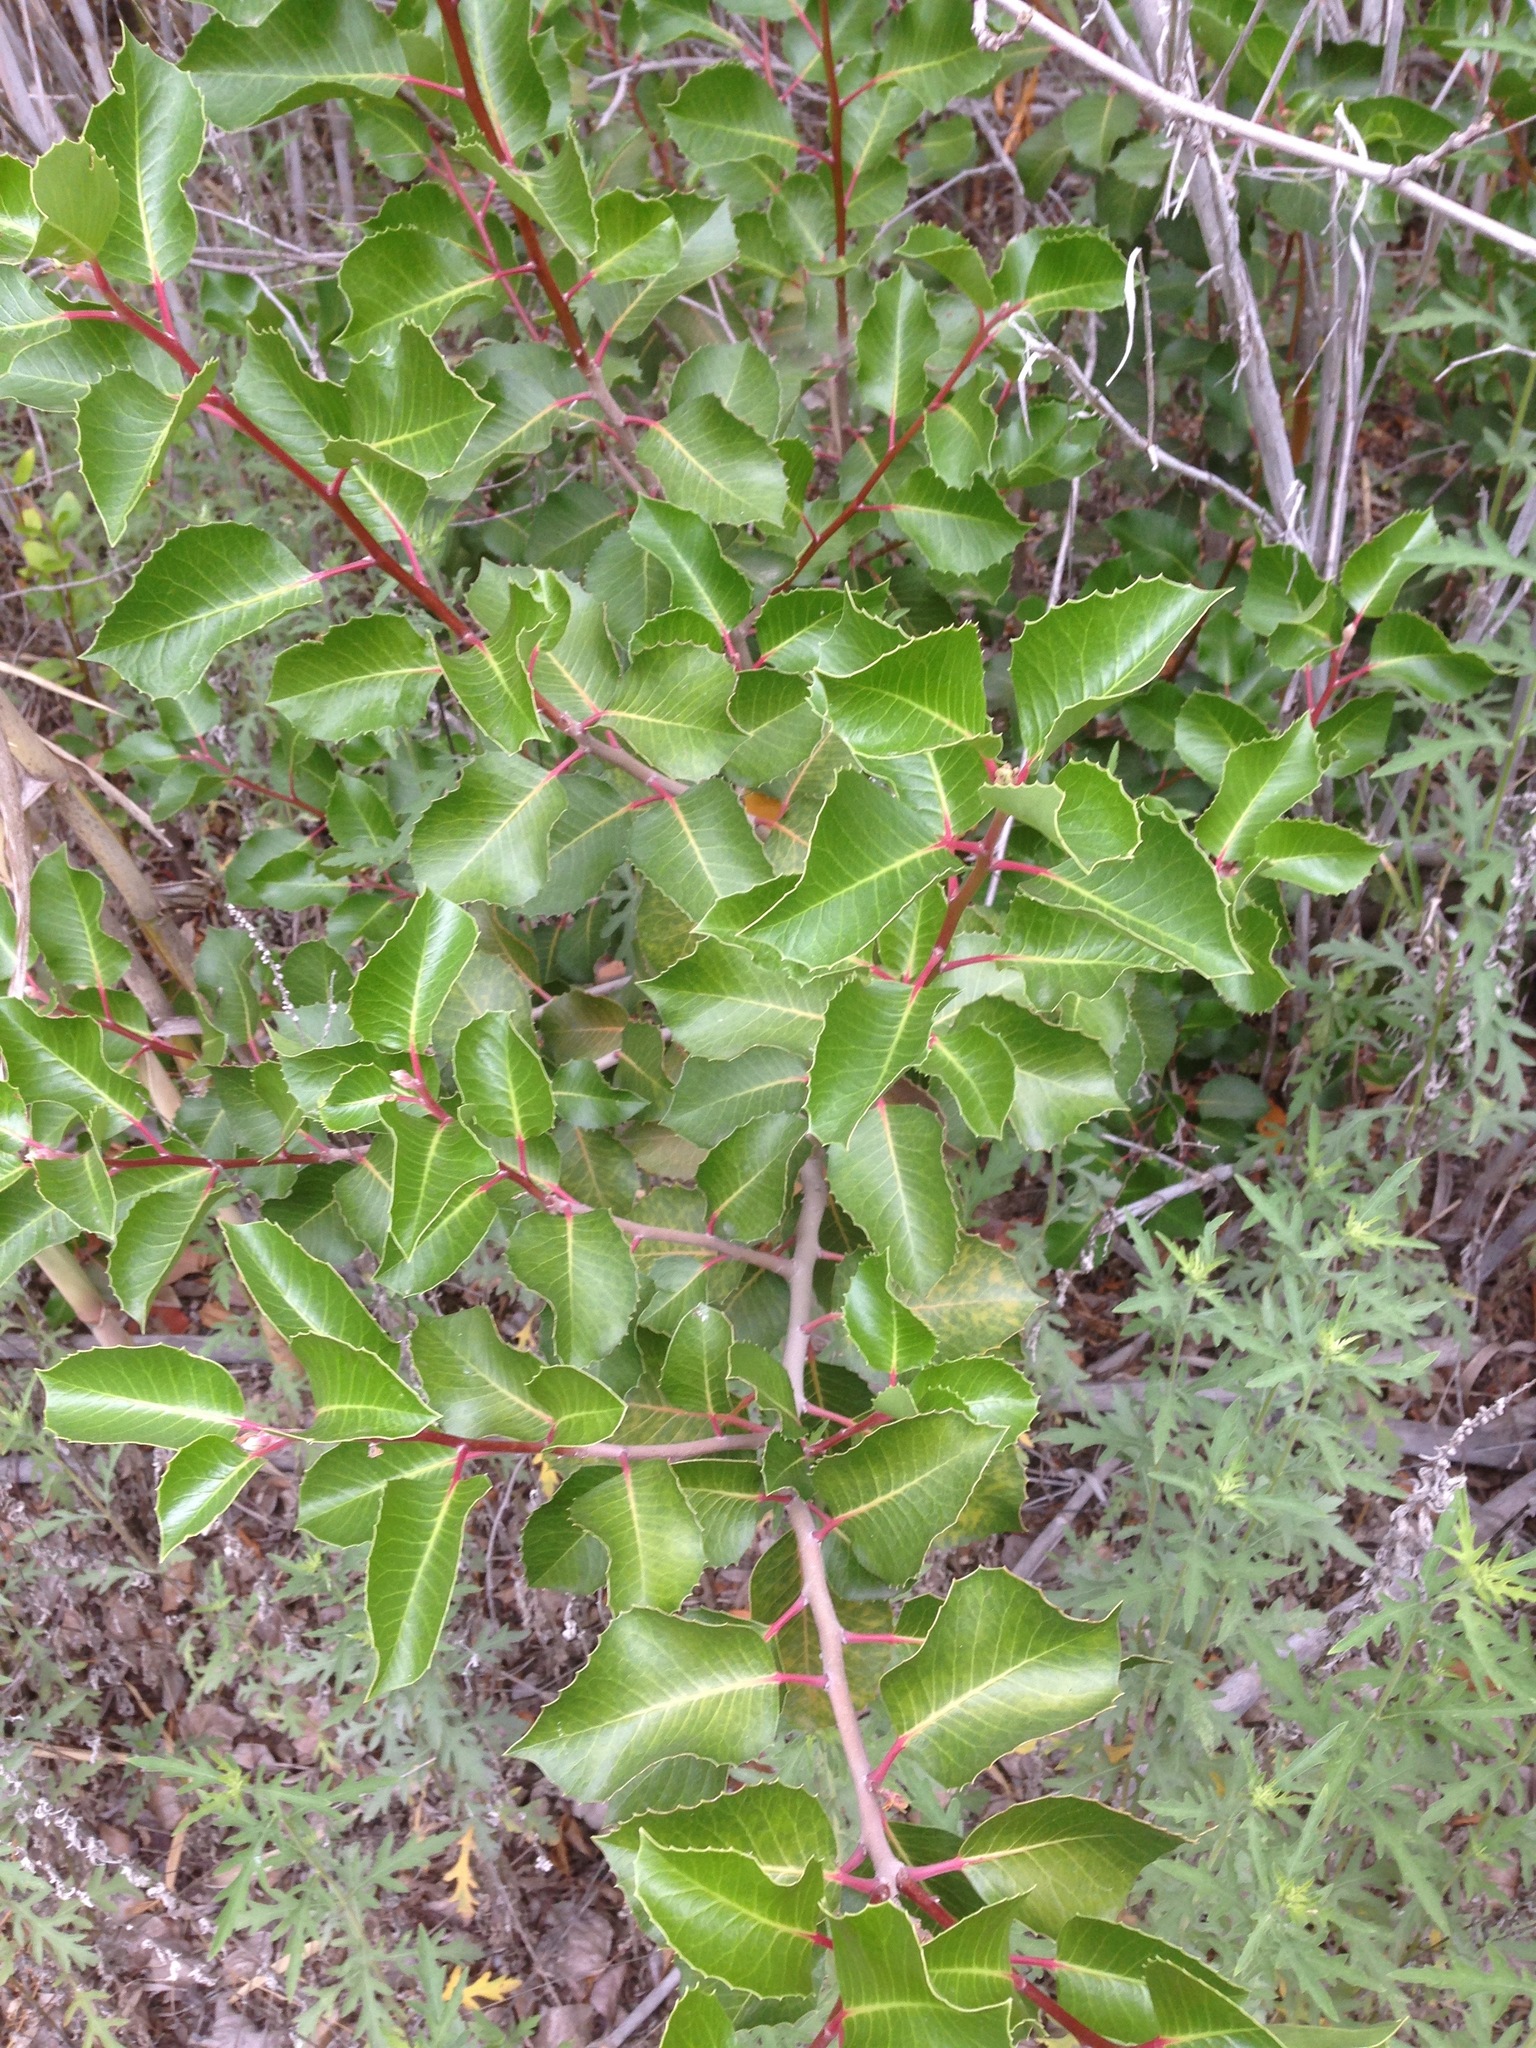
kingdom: Plantae
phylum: Tracheophyta
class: Magnoliopsida
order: Sapindales
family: Anacardiaceae
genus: Rhus
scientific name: Rhus
